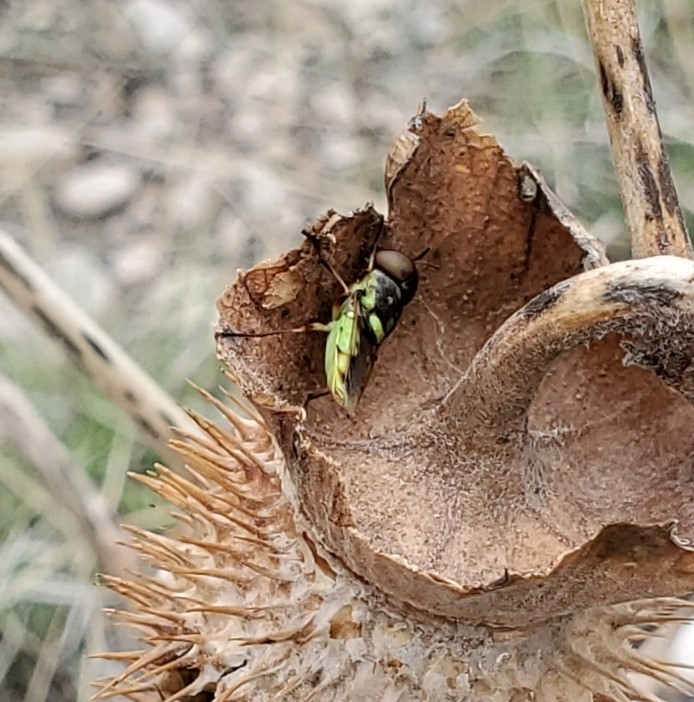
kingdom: Animalia
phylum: Arthropoda
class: Insecta
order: Diptera
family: Stratiomyidae
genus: Hedriodiscus
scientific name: Hedriodiscus binotatus
